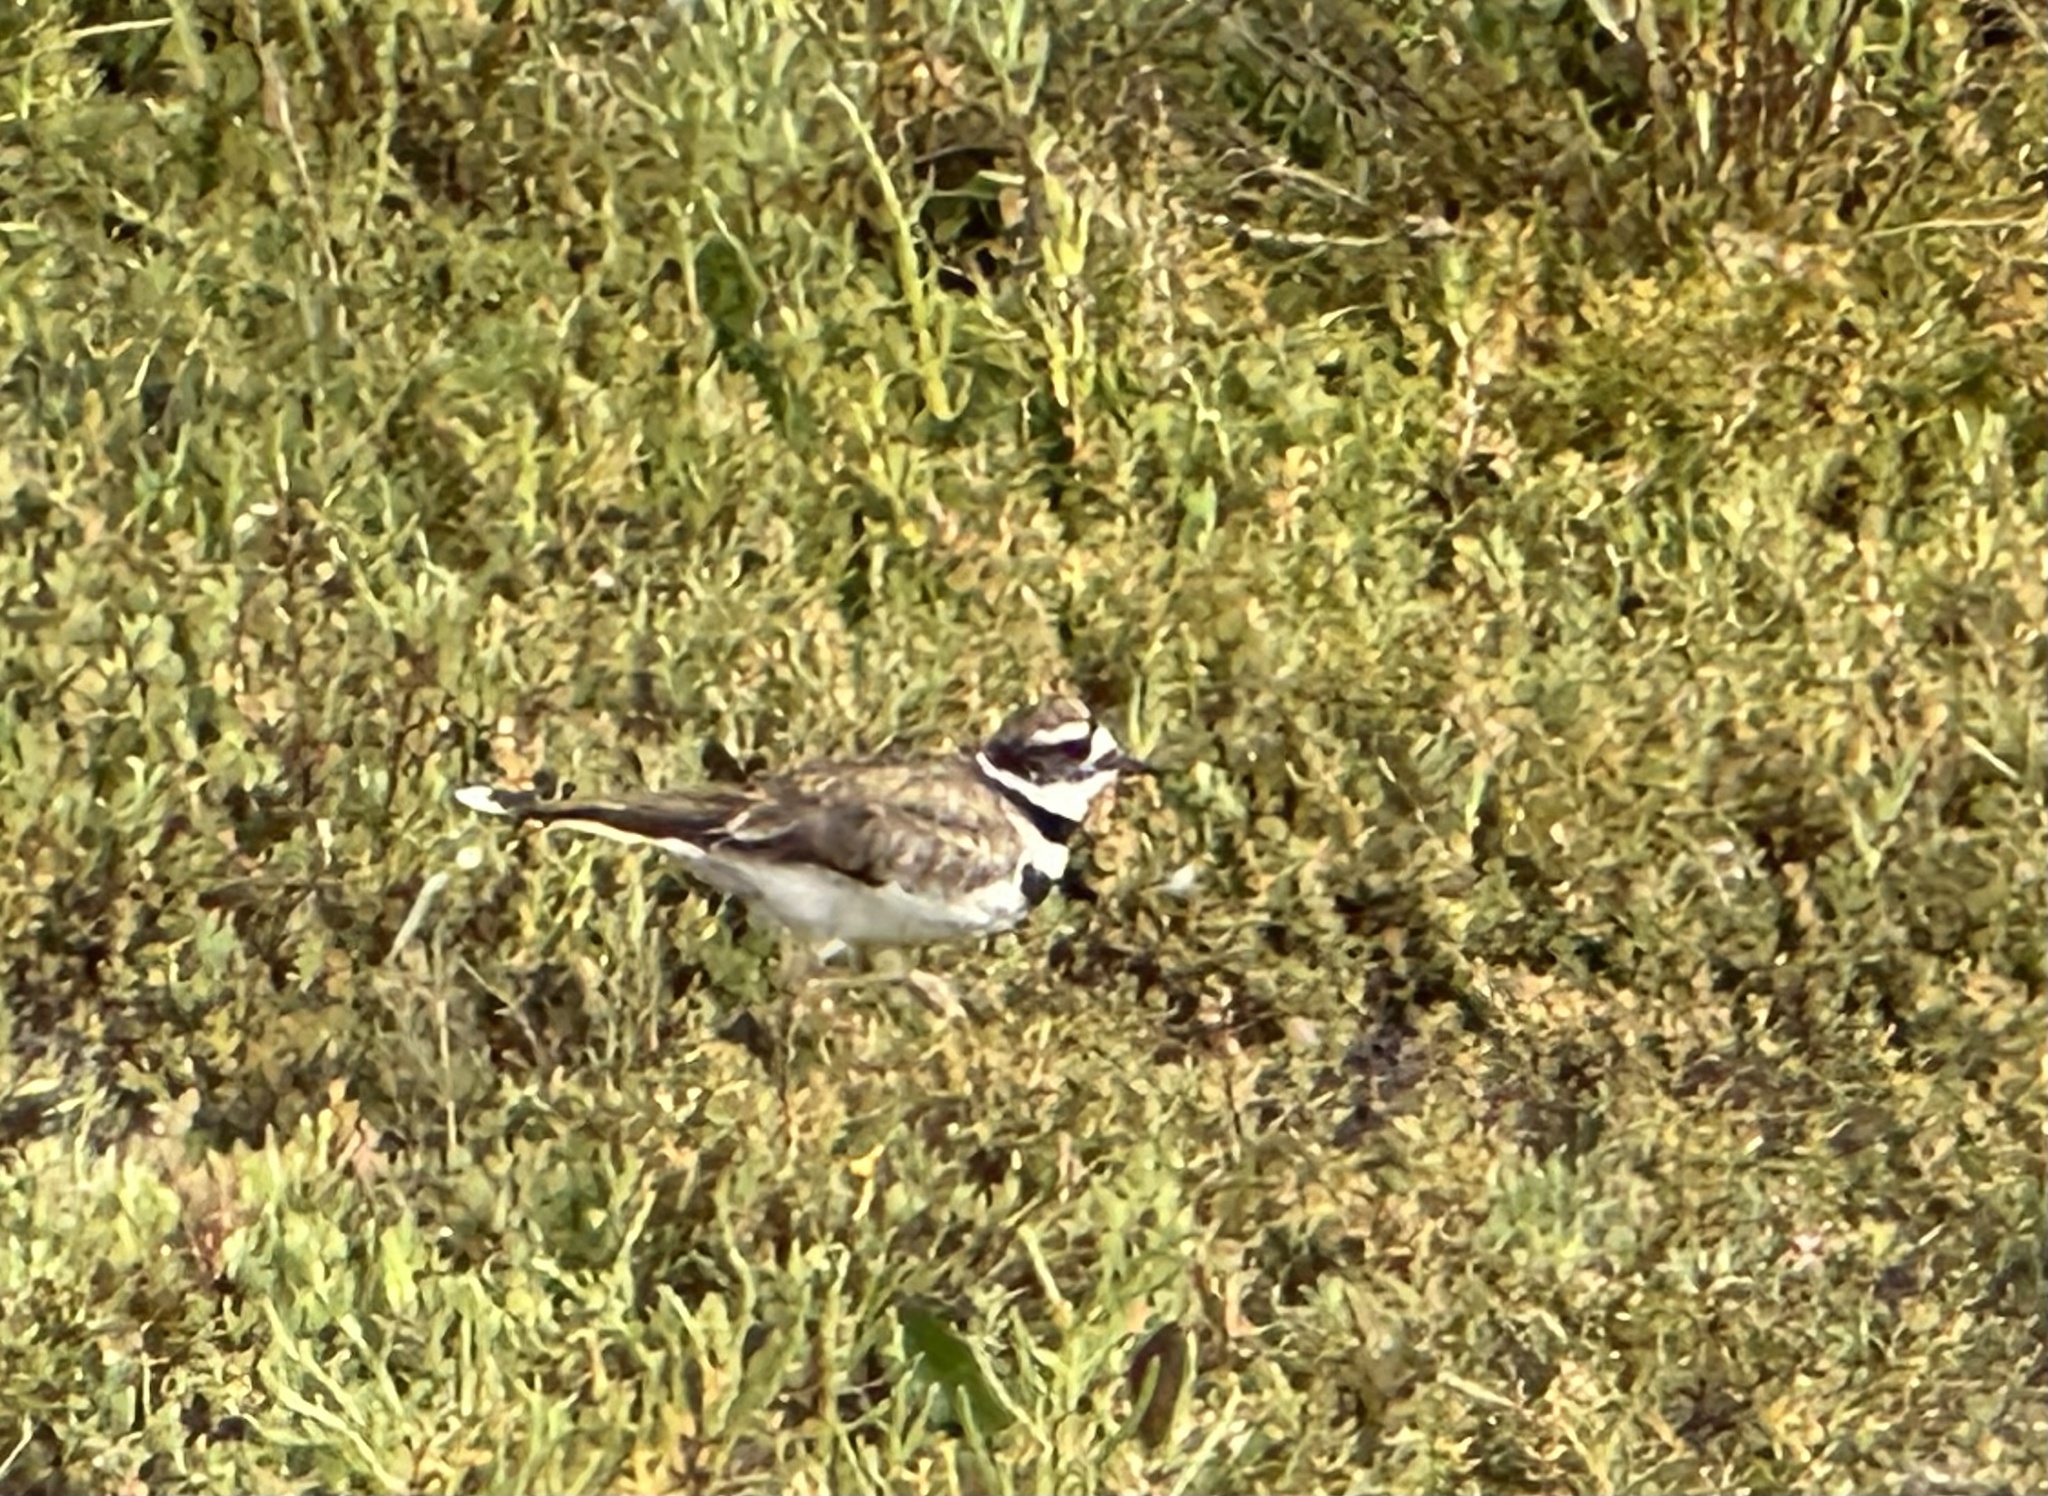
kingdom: Animalia
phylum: Chordata
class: Aves
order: Charadriiformes
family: Charadriidae
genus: Charadrius
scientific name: Charadrius vociferus
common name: Killdeer
